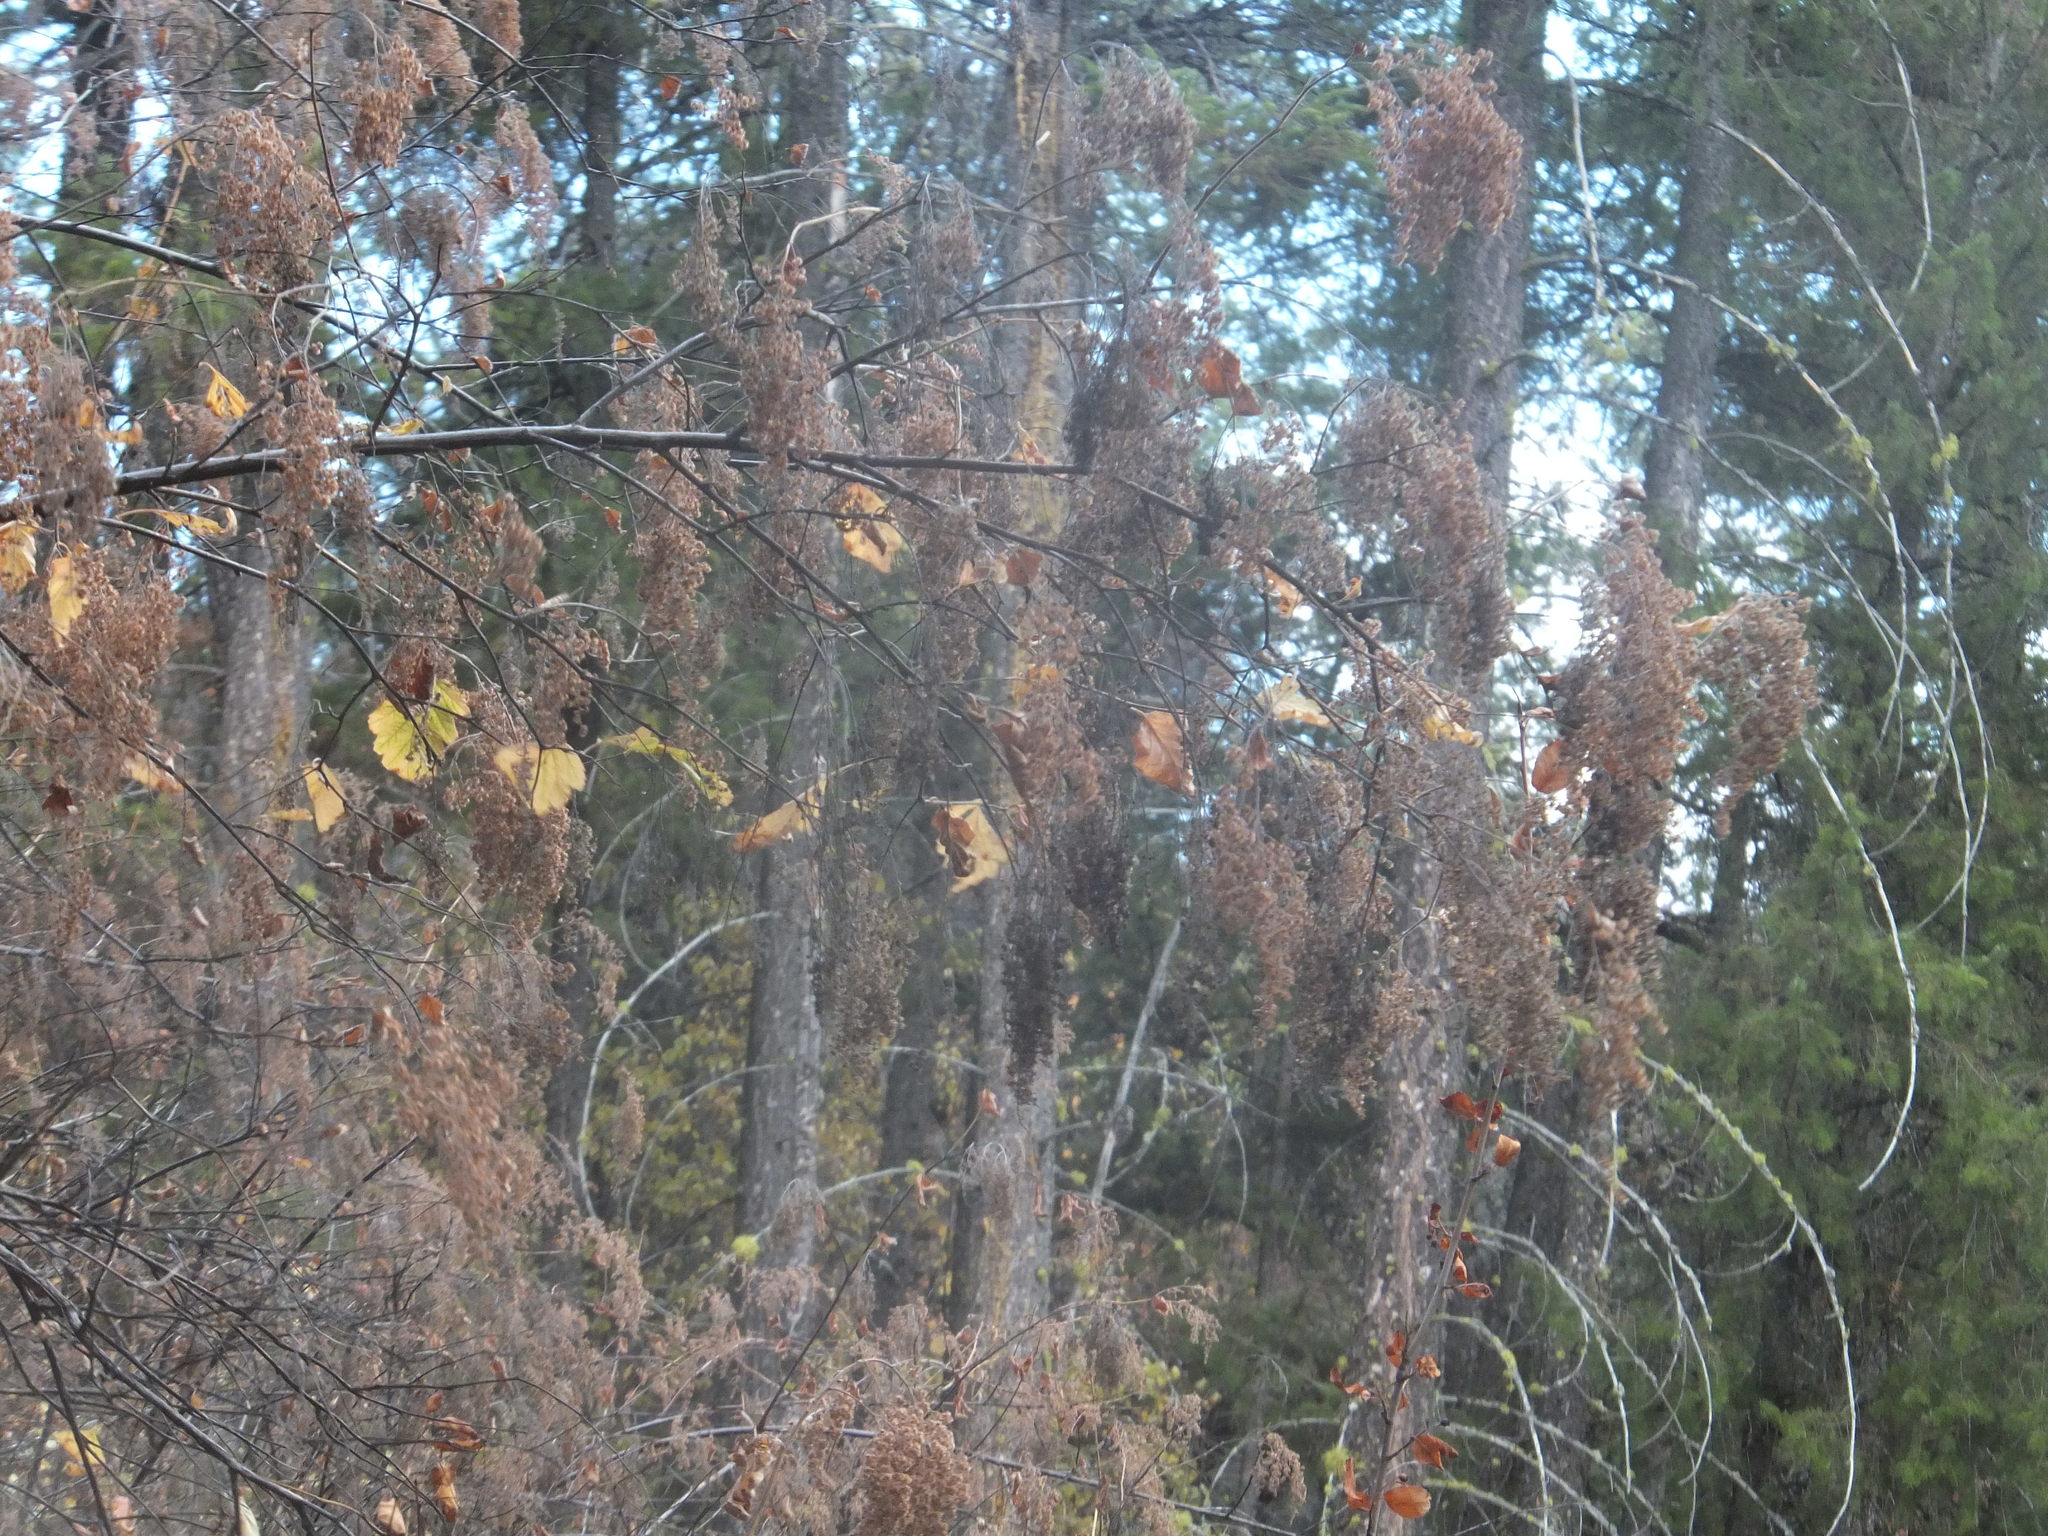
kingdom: Plantae
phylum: Tracheophyta
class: Magnoliopsida
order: Rosales
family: Rosaceae
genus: Holodiscus
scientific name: Holodiscus discolor
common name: Oceanspray
